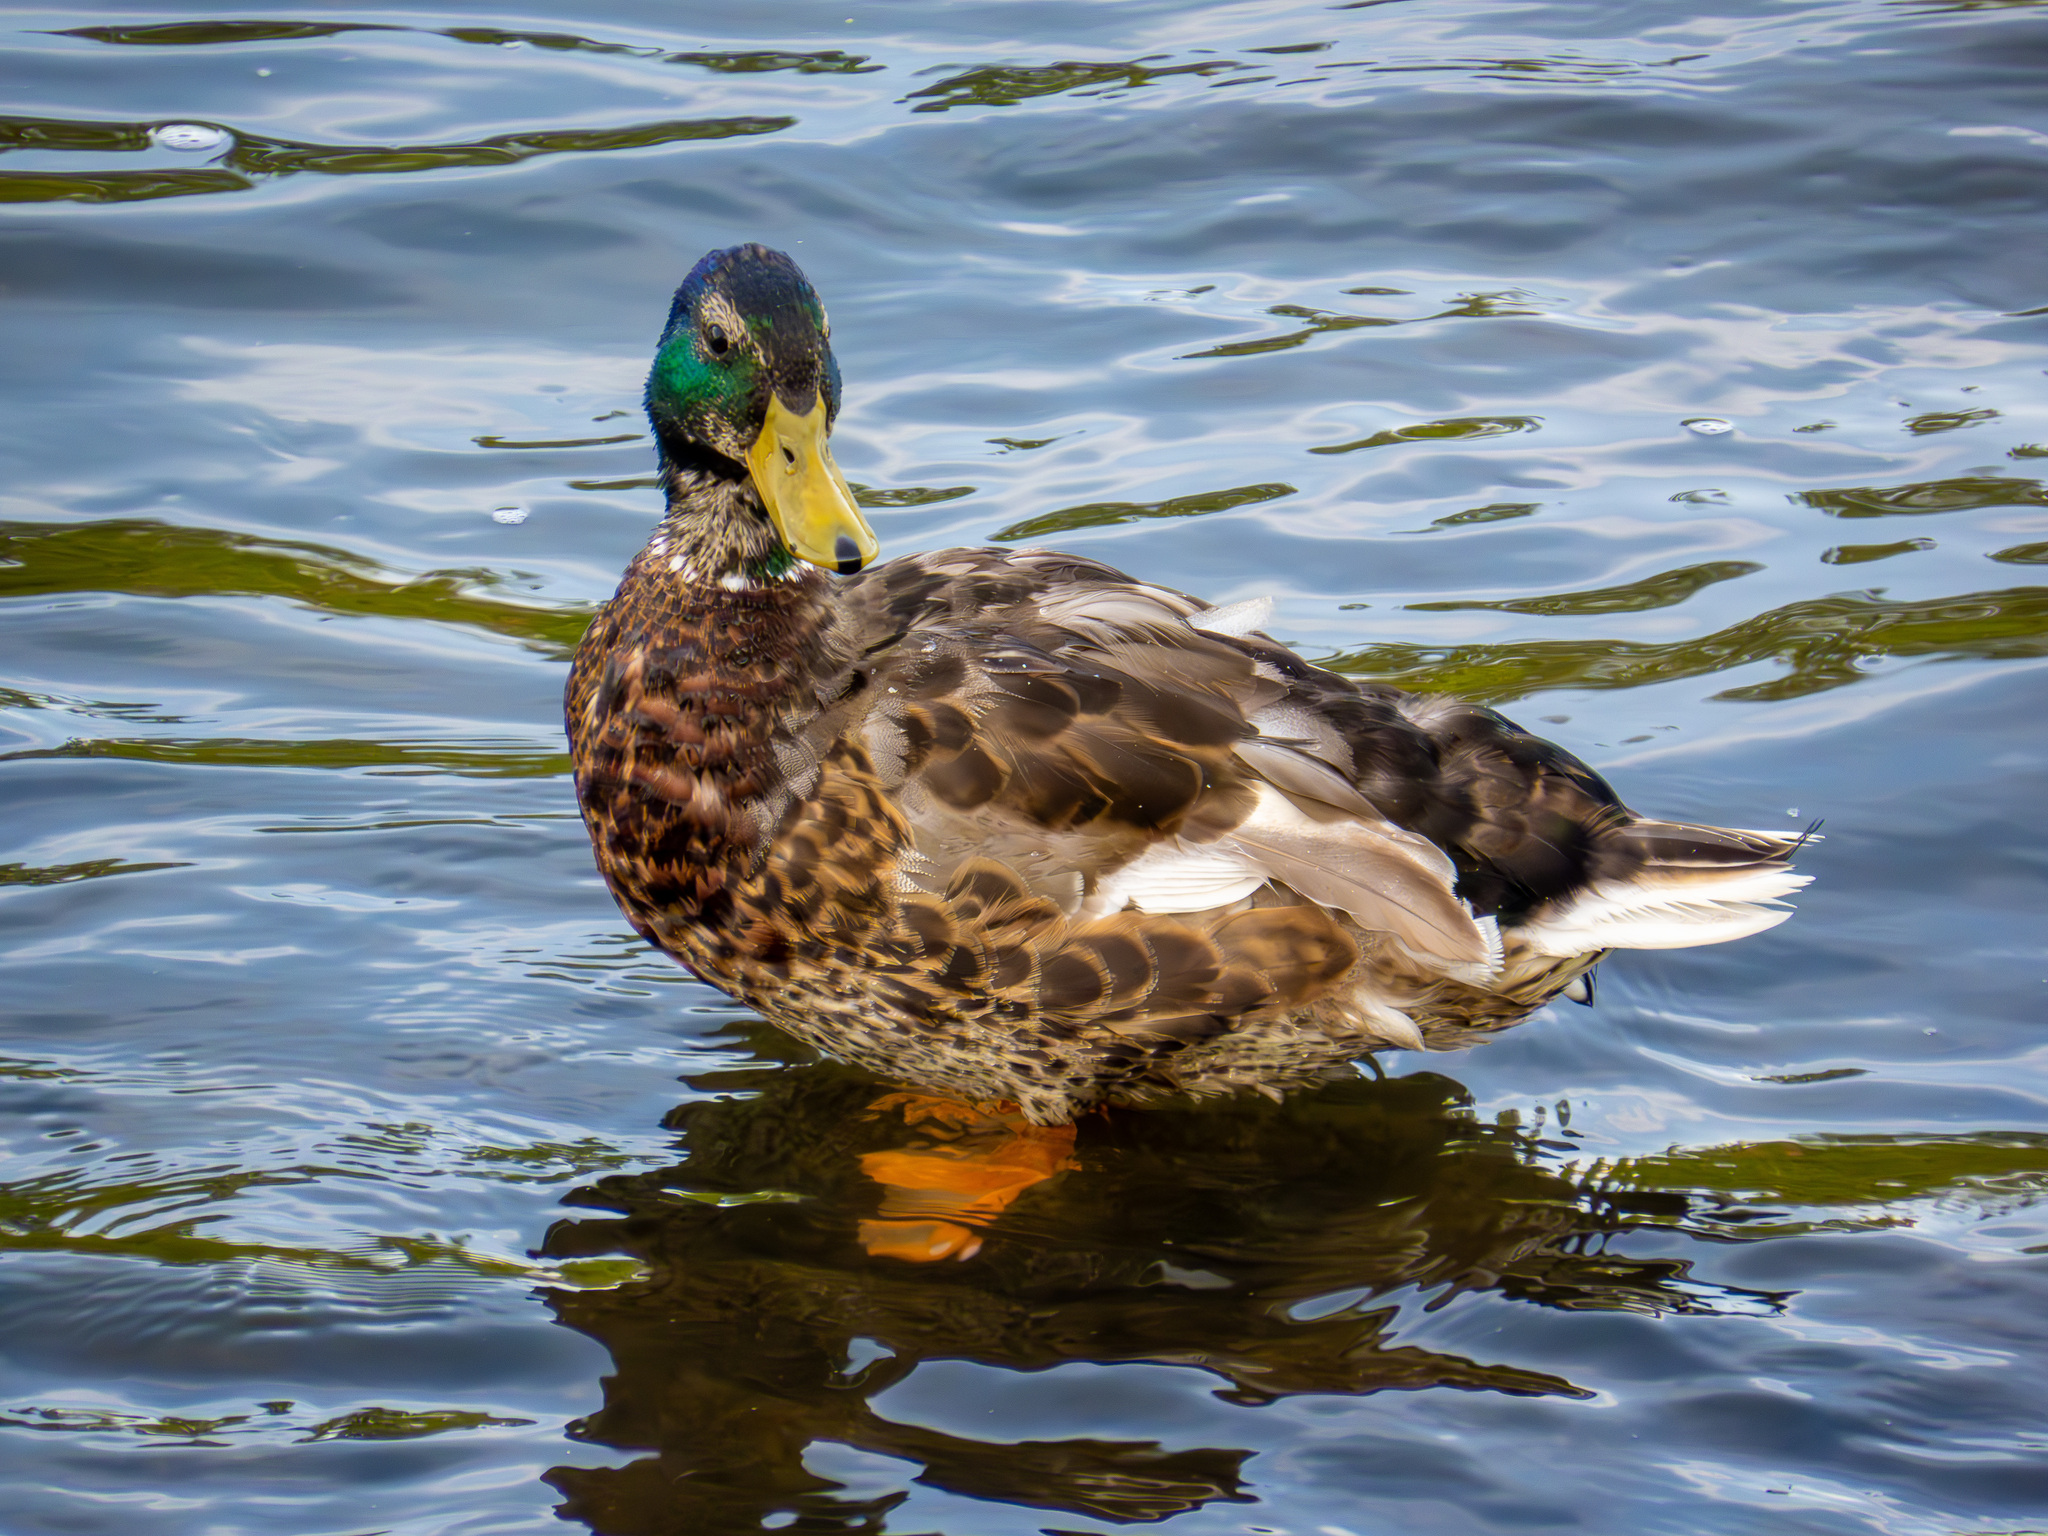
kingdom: Animalia
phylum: Chordata
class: Aves
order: Anseriformes
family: Anatidae
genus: Anas
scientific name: Anas platyrhynchos
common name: Mallard
